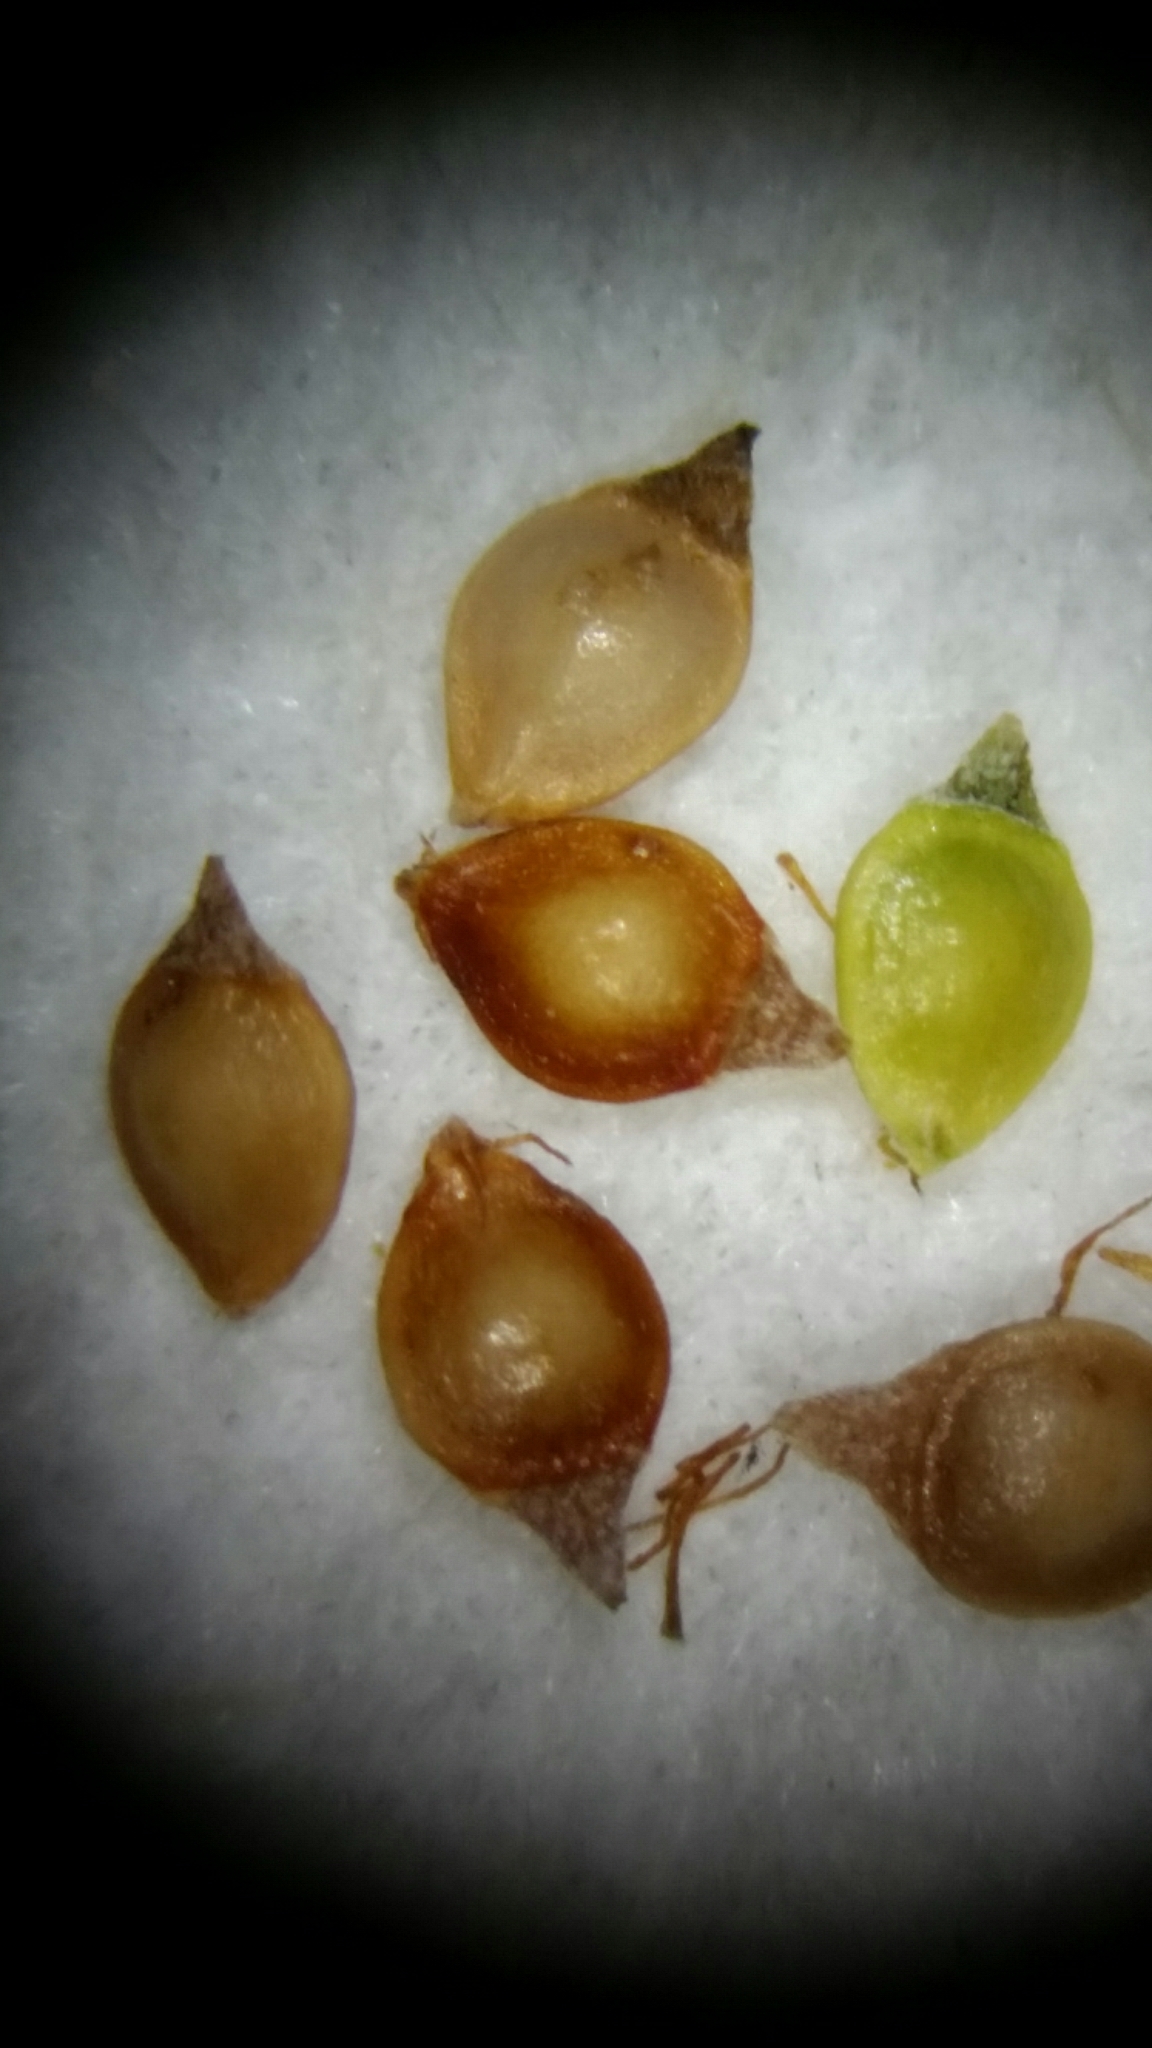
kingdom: Plantae
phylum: Tracheophyta
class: Liliopsida
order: Poales
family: Cyperaceae
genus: Rhynchospora
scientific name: Rhynchospora brachychaeta
